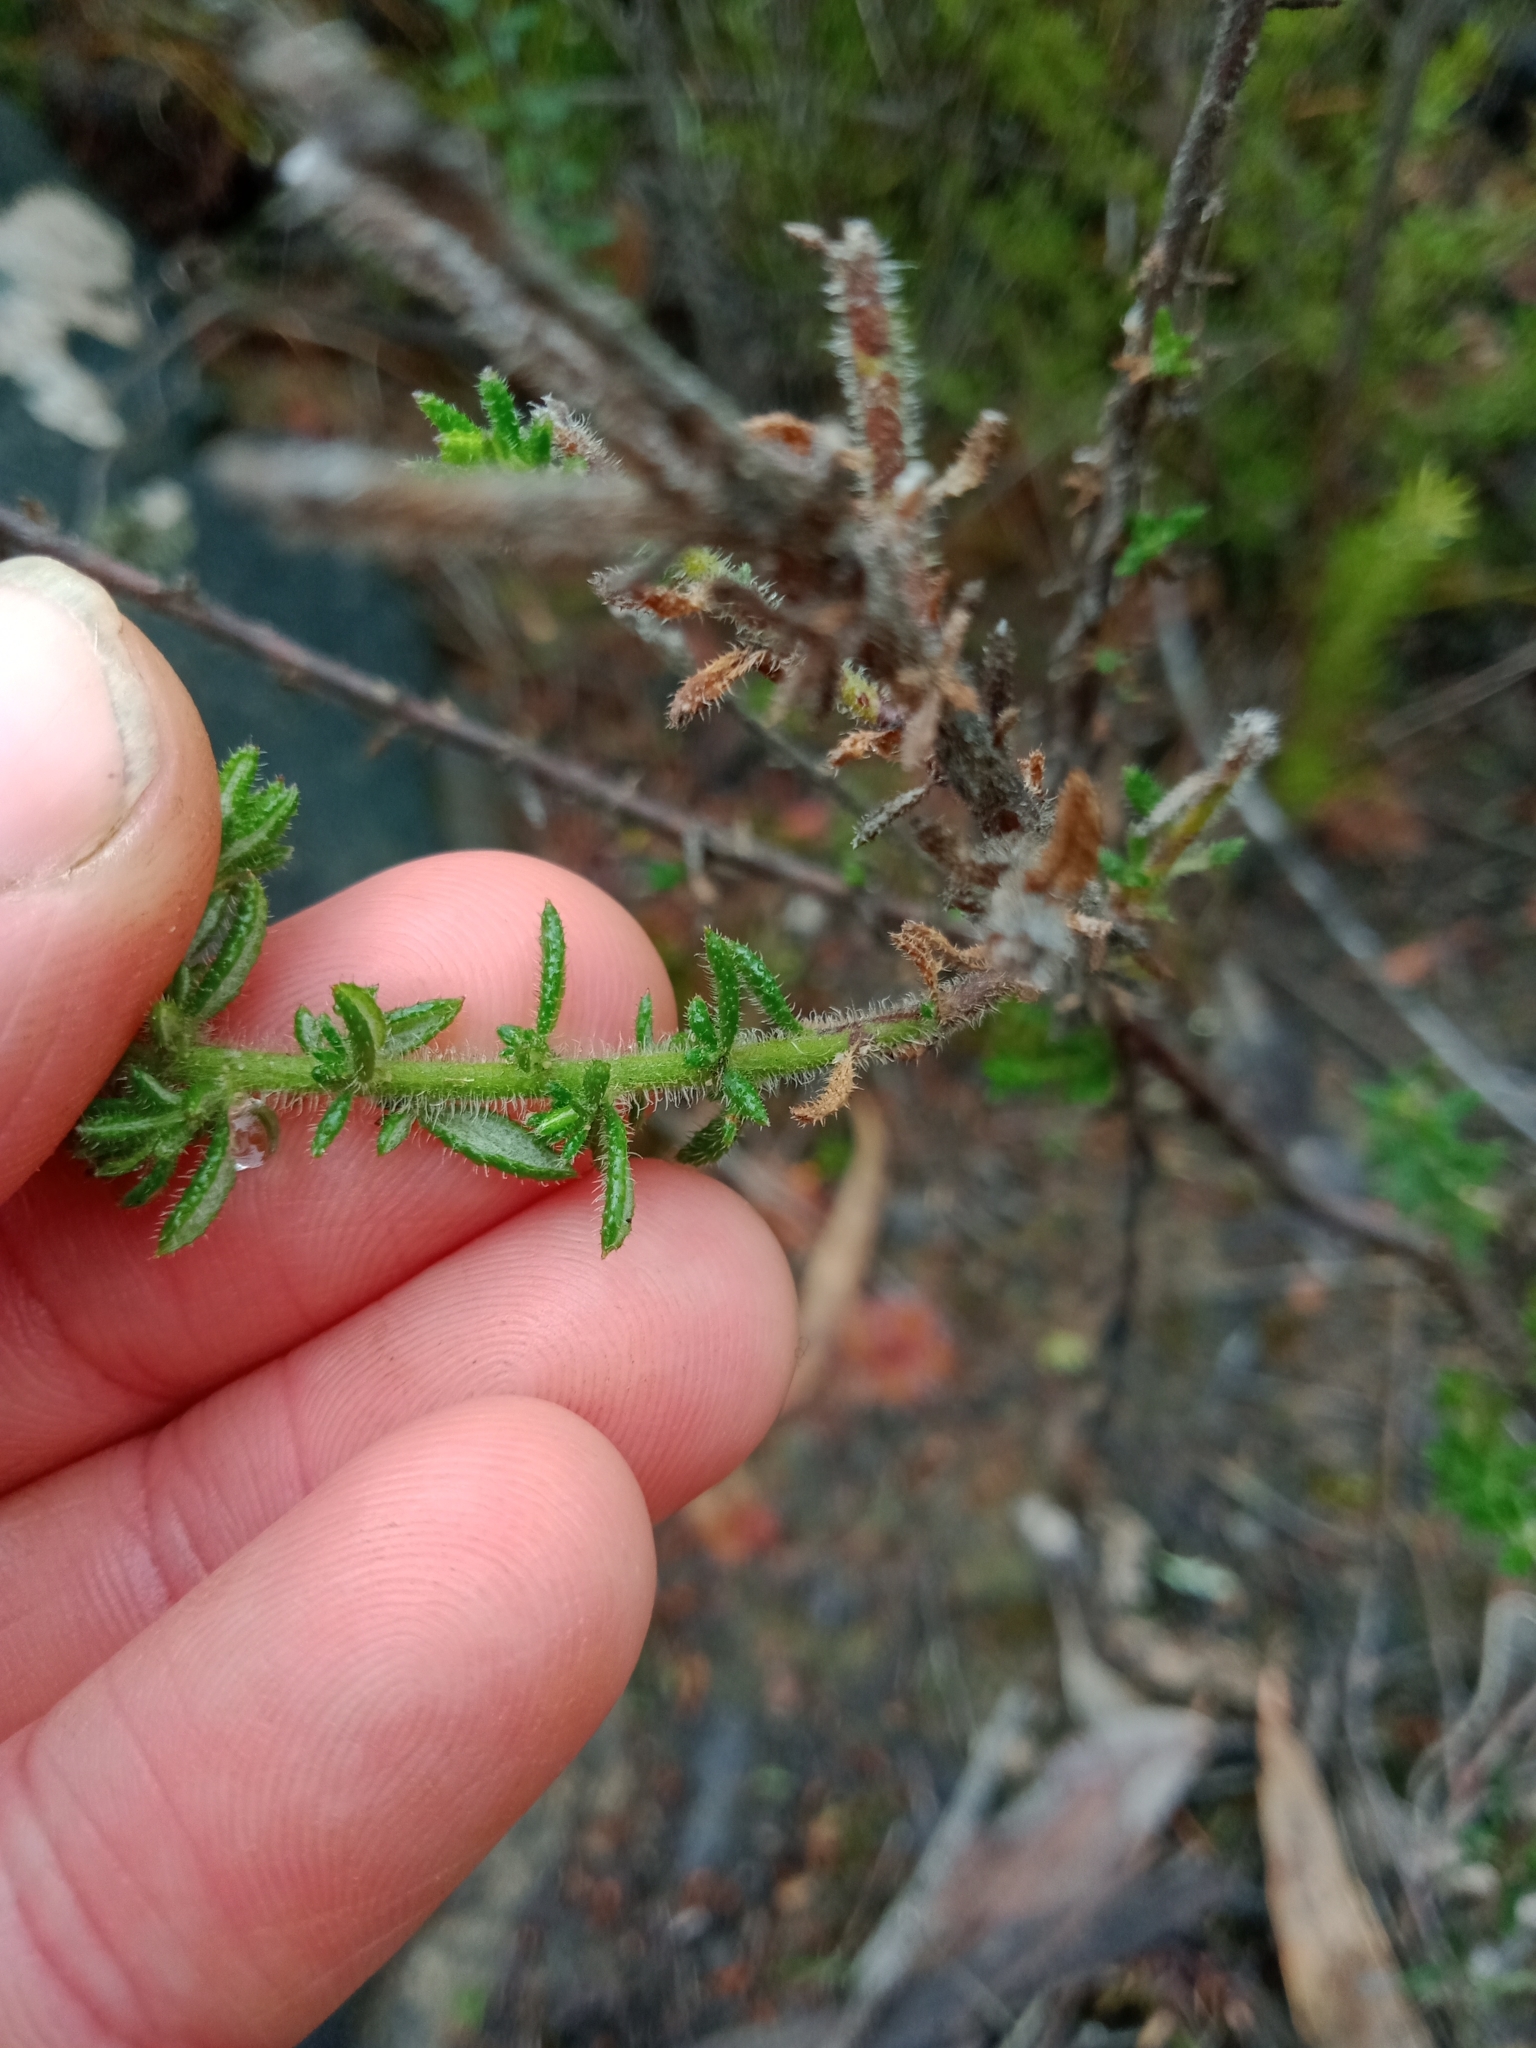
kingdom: Plantae
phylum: Tracheophyta
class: Magnoliopsida
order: Asterales
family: Asteraceae
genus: Olearia
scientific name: Olearia ramulosa
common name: Twiggy daisybush
